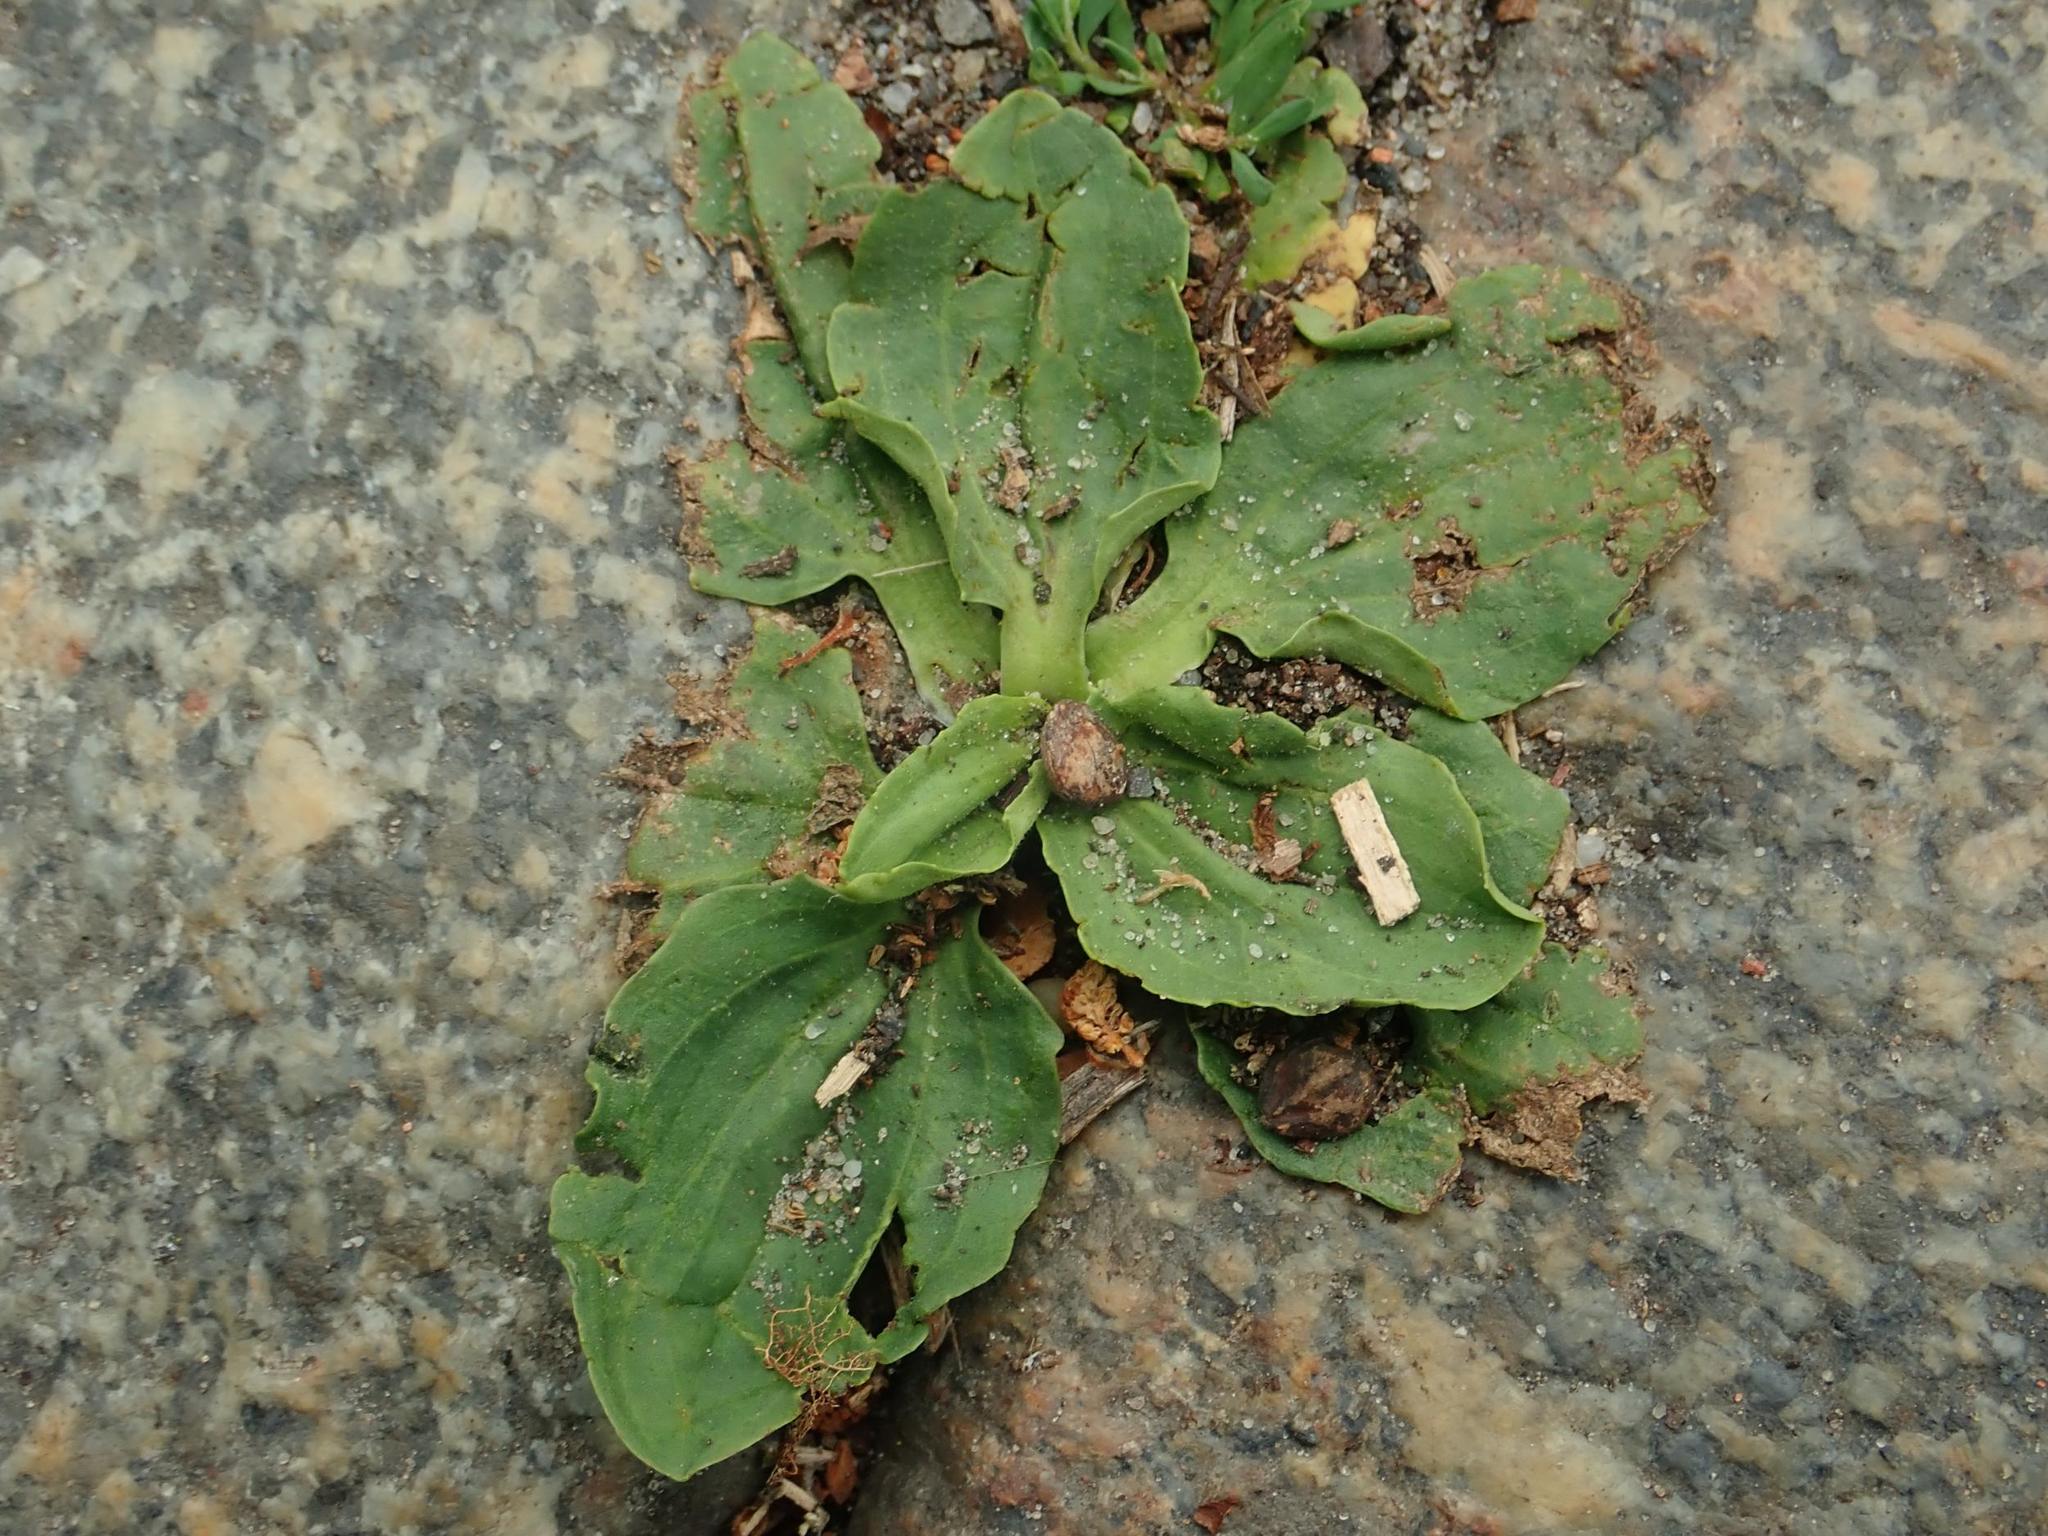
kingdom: Plantae
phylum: Tracheophyta
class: Magnoliopsida
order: Lamiales
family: Plantaginaceae
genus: Plantago
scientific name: Plantago major
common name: Common plantain
